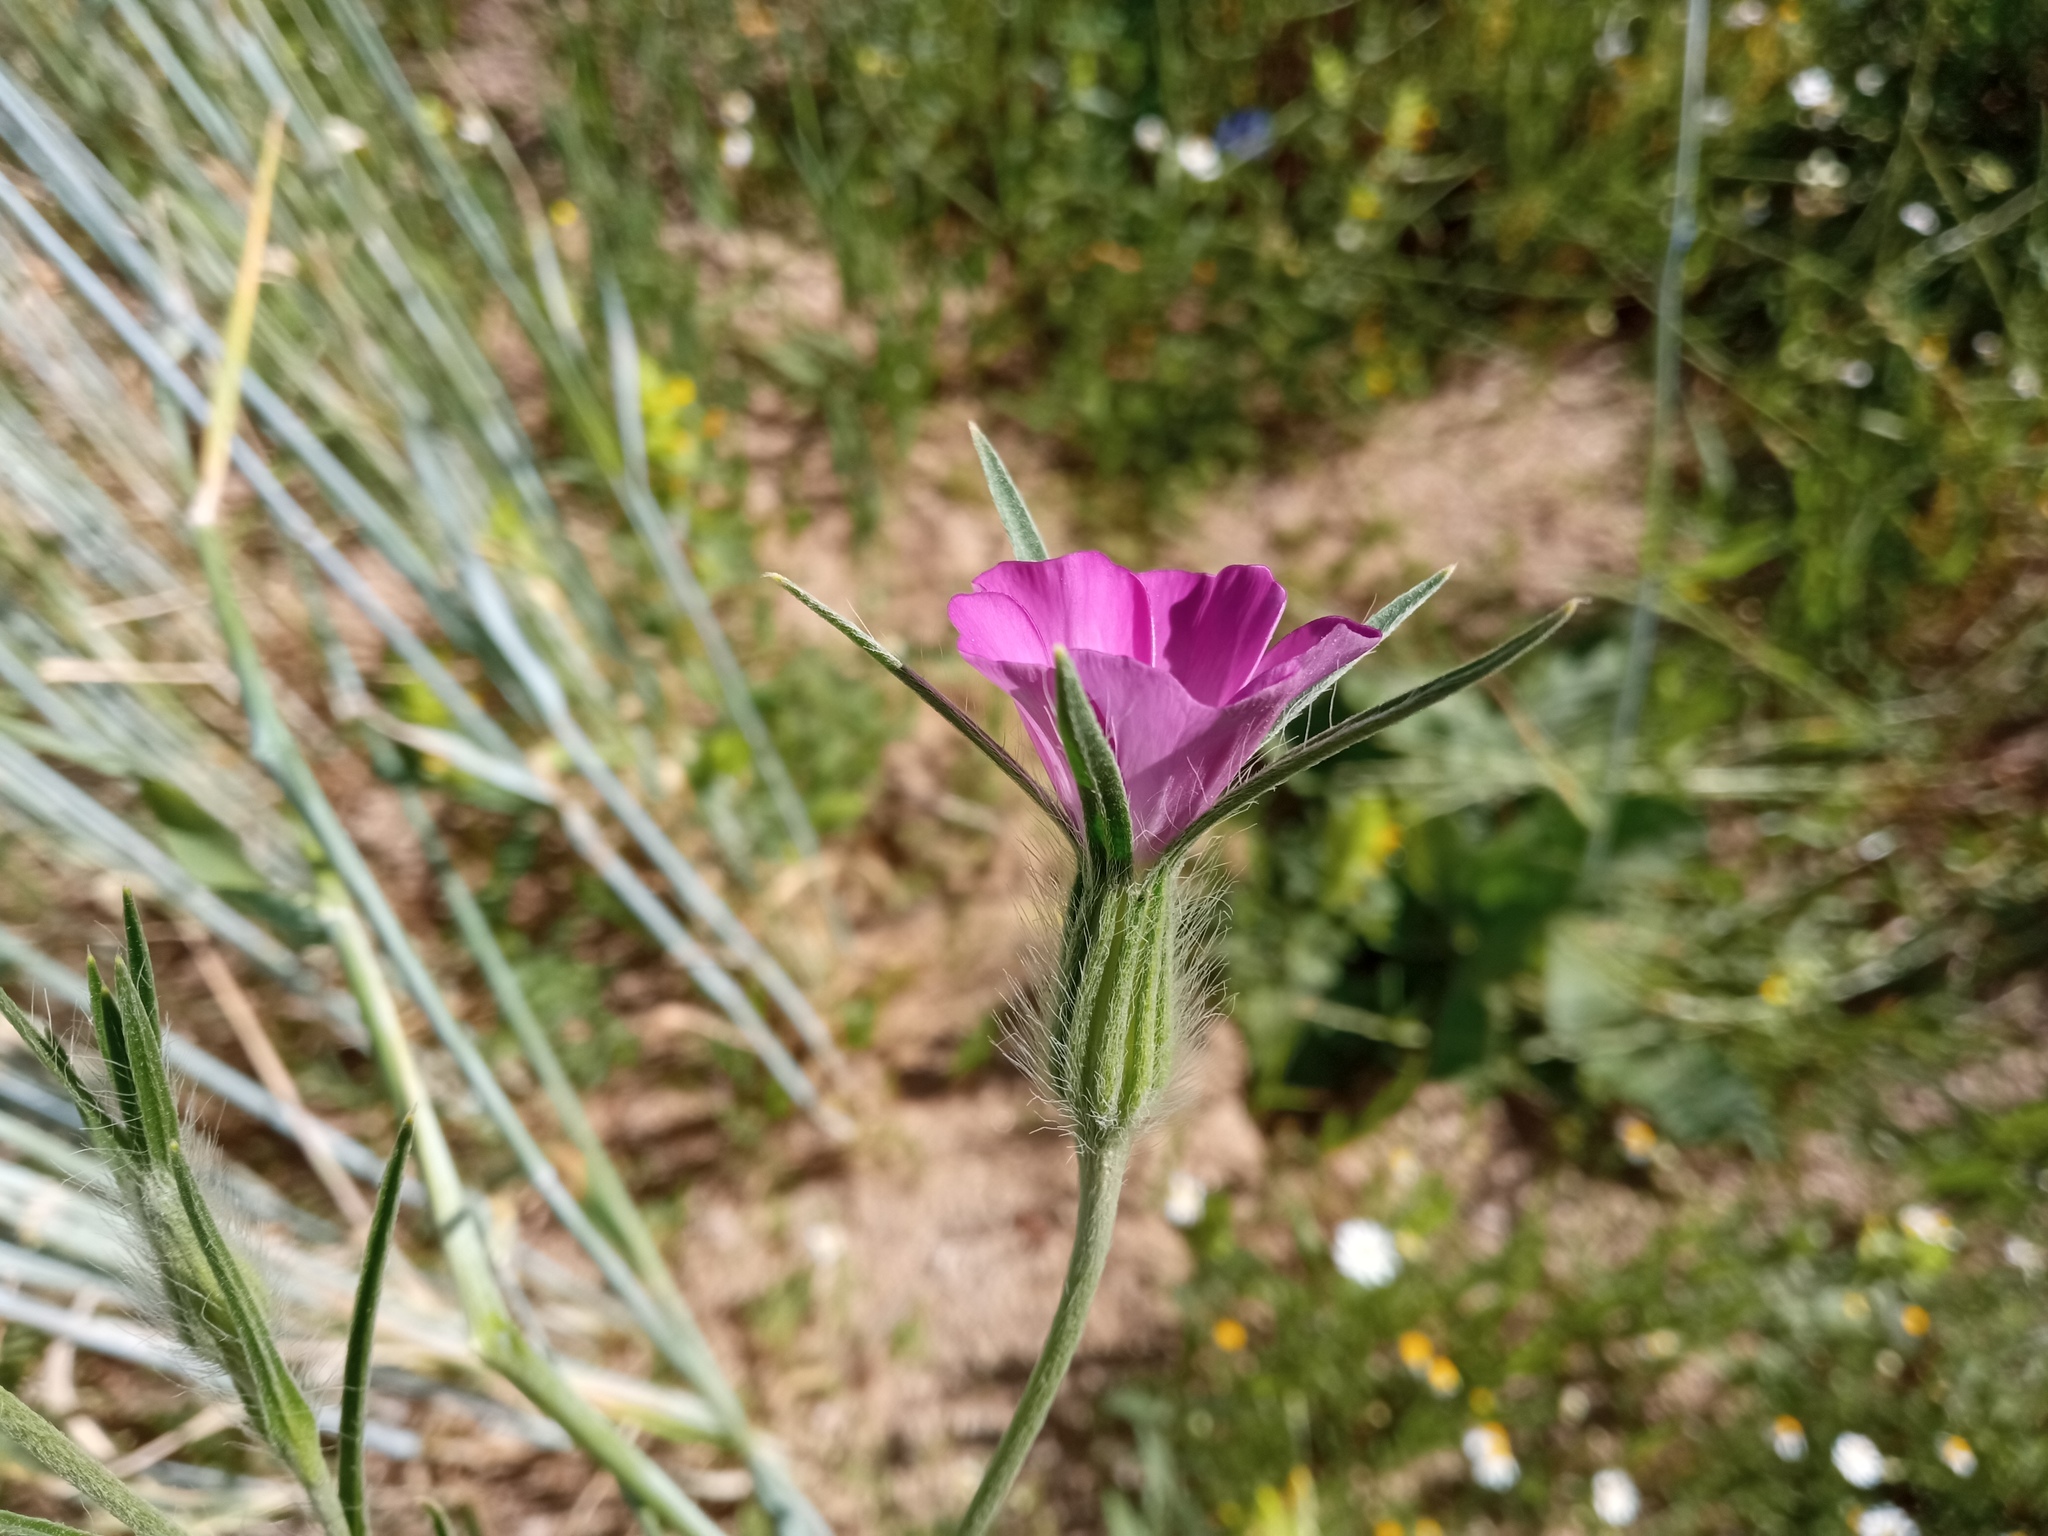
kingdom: Plantae
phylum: Tracheophyta
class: Magnoliopsida
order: Caryophyllales
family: Caryophyllaceae
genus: Agrostemma
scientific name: Agrostemma githago
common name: Common corncockle
